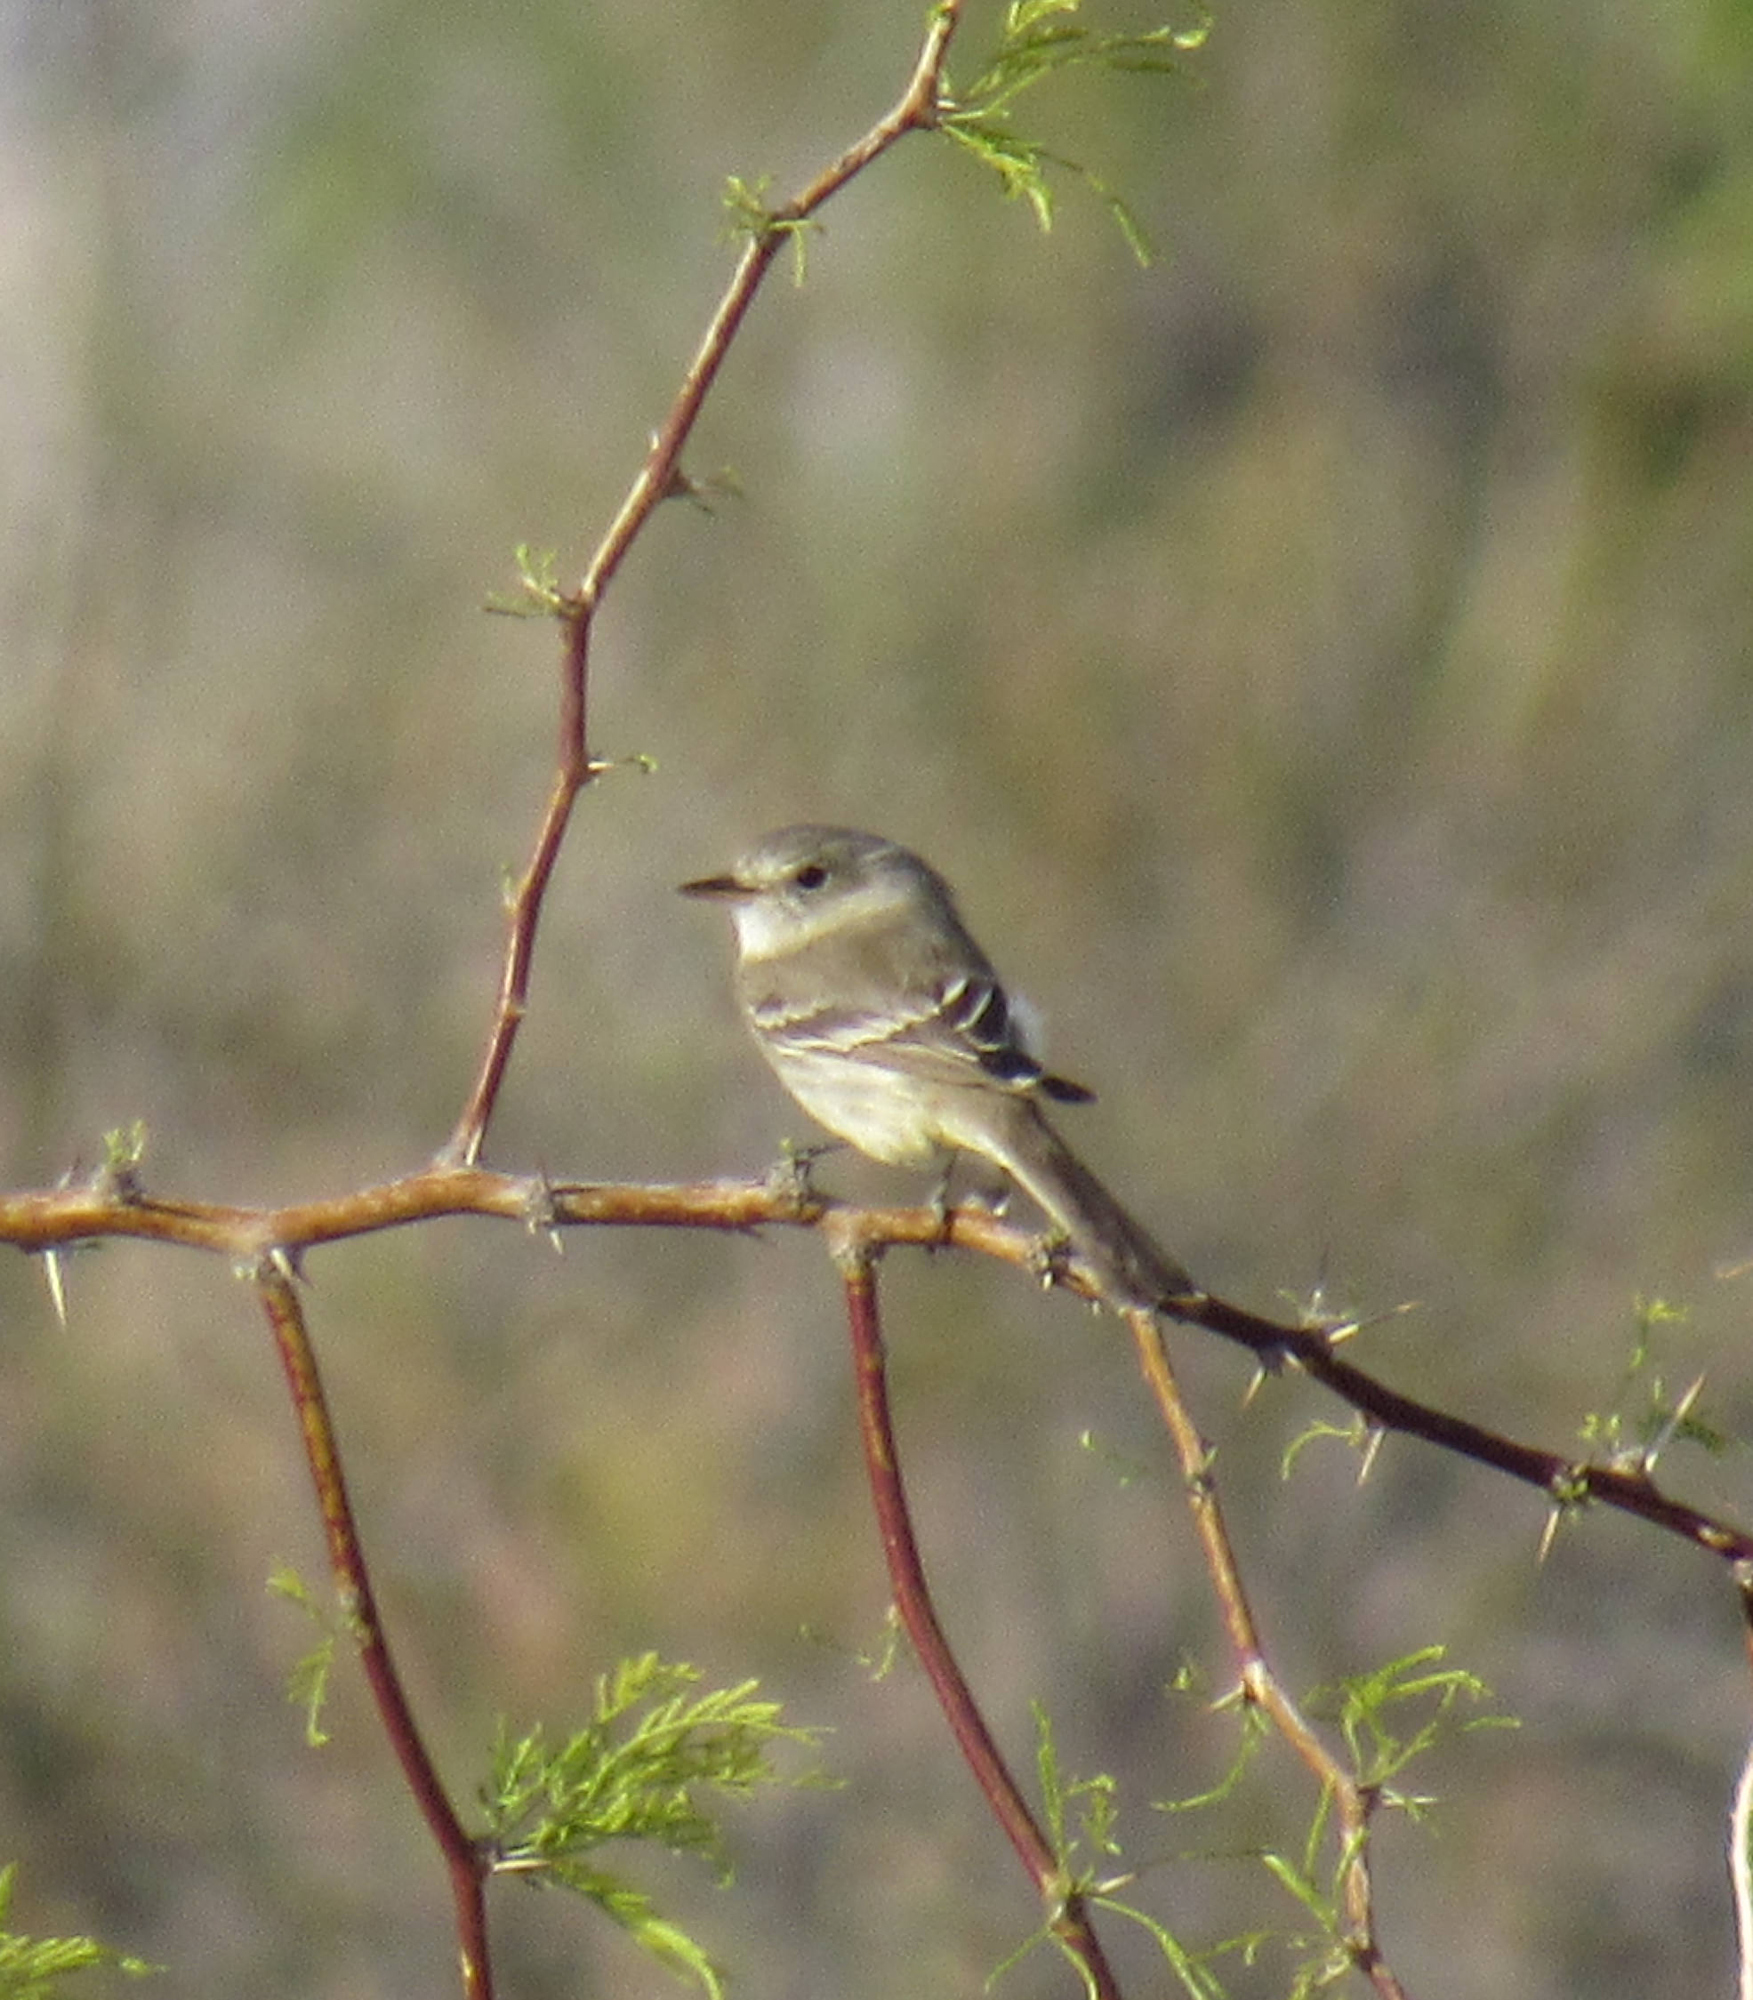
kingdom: Animalia
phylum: Chordata
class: Aves
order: Passeriformes
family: Tyrannidae
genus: Empidonax
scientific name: Empidonax wrightii
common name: Gray flycatcher
